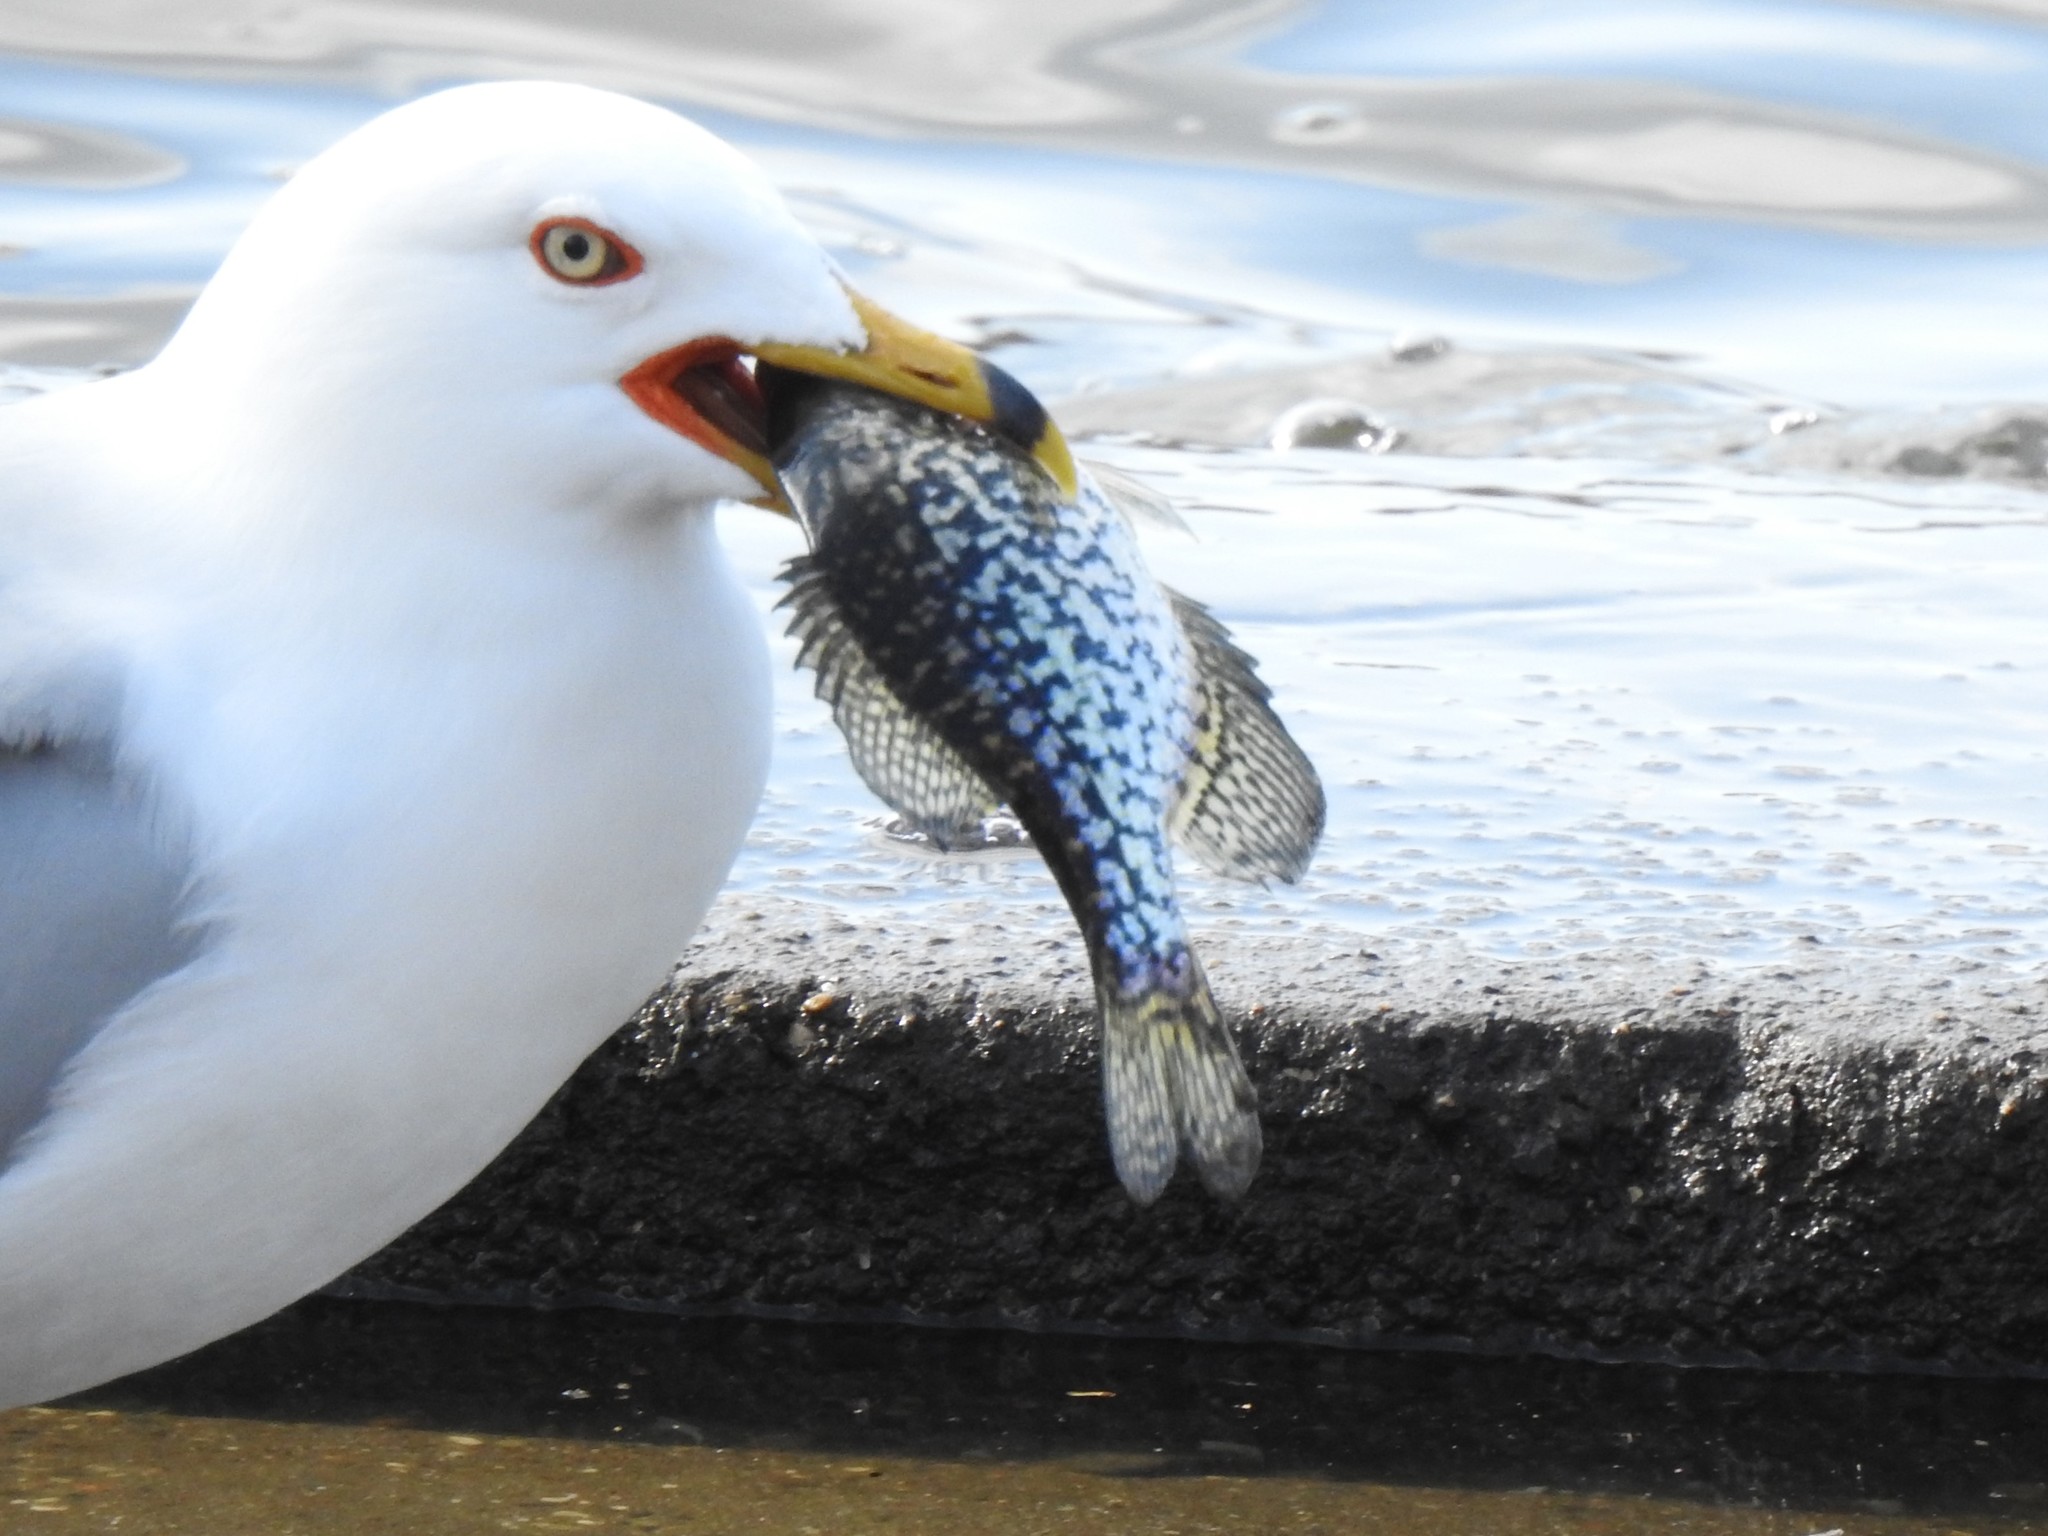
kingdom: Animalia
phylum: Chordata
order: Perciformes
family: Centrarchidae
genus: Pomoxis
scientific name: Pomoxis nigromaculatus
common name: Black crappie
